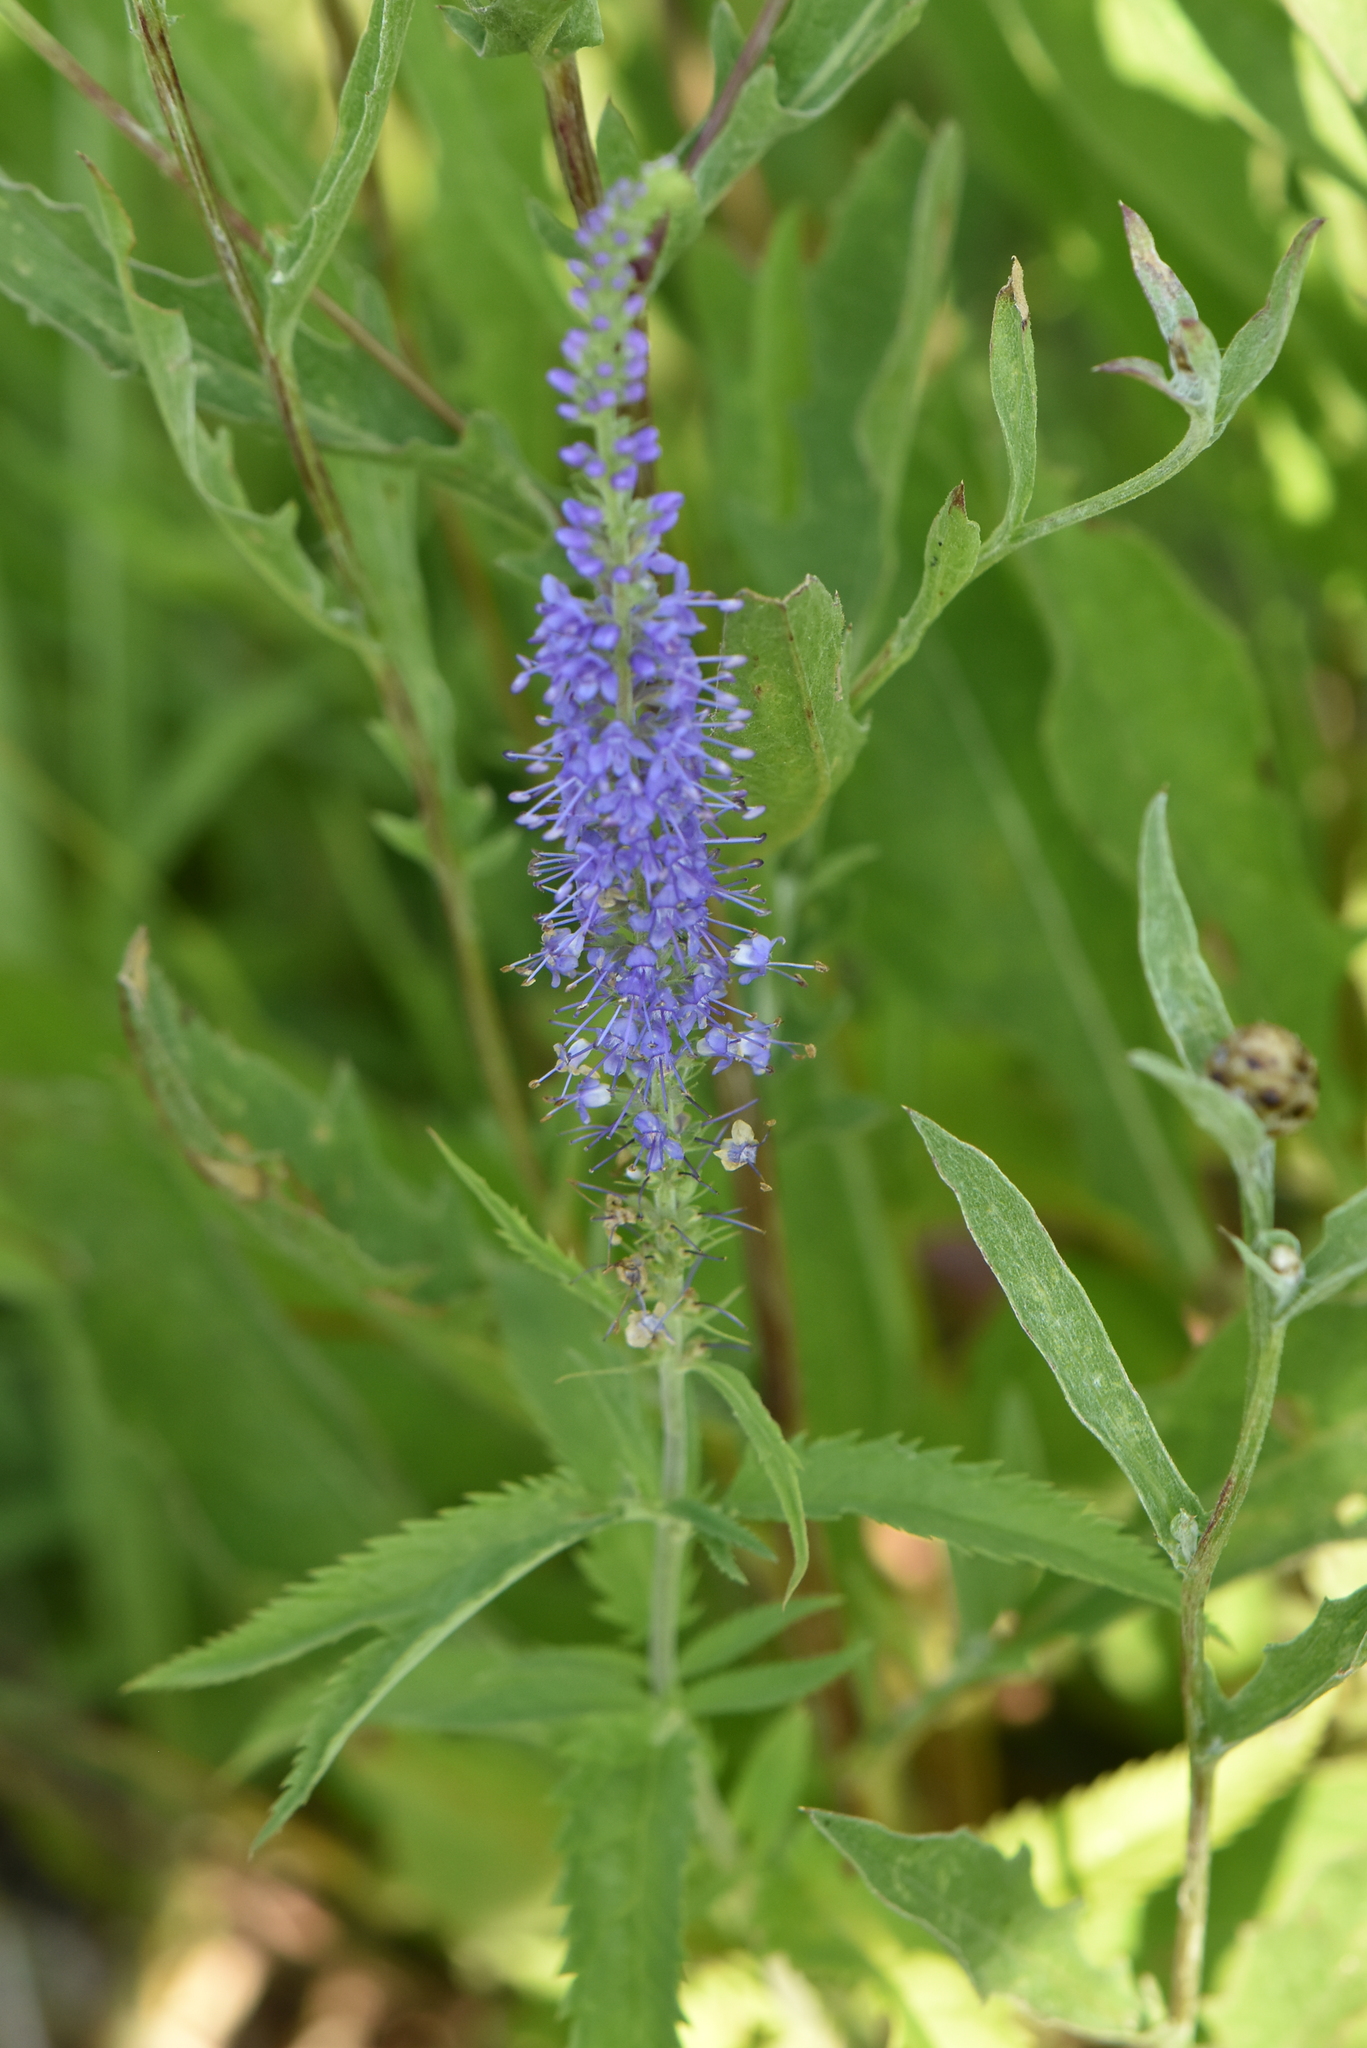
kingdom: Plantae
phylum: Tracheophyta
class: Magnoliopsida
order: Lamiales
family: Plantaginaceae
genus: Veronica
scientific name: Veronica longifolia
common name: Garden speedwell
